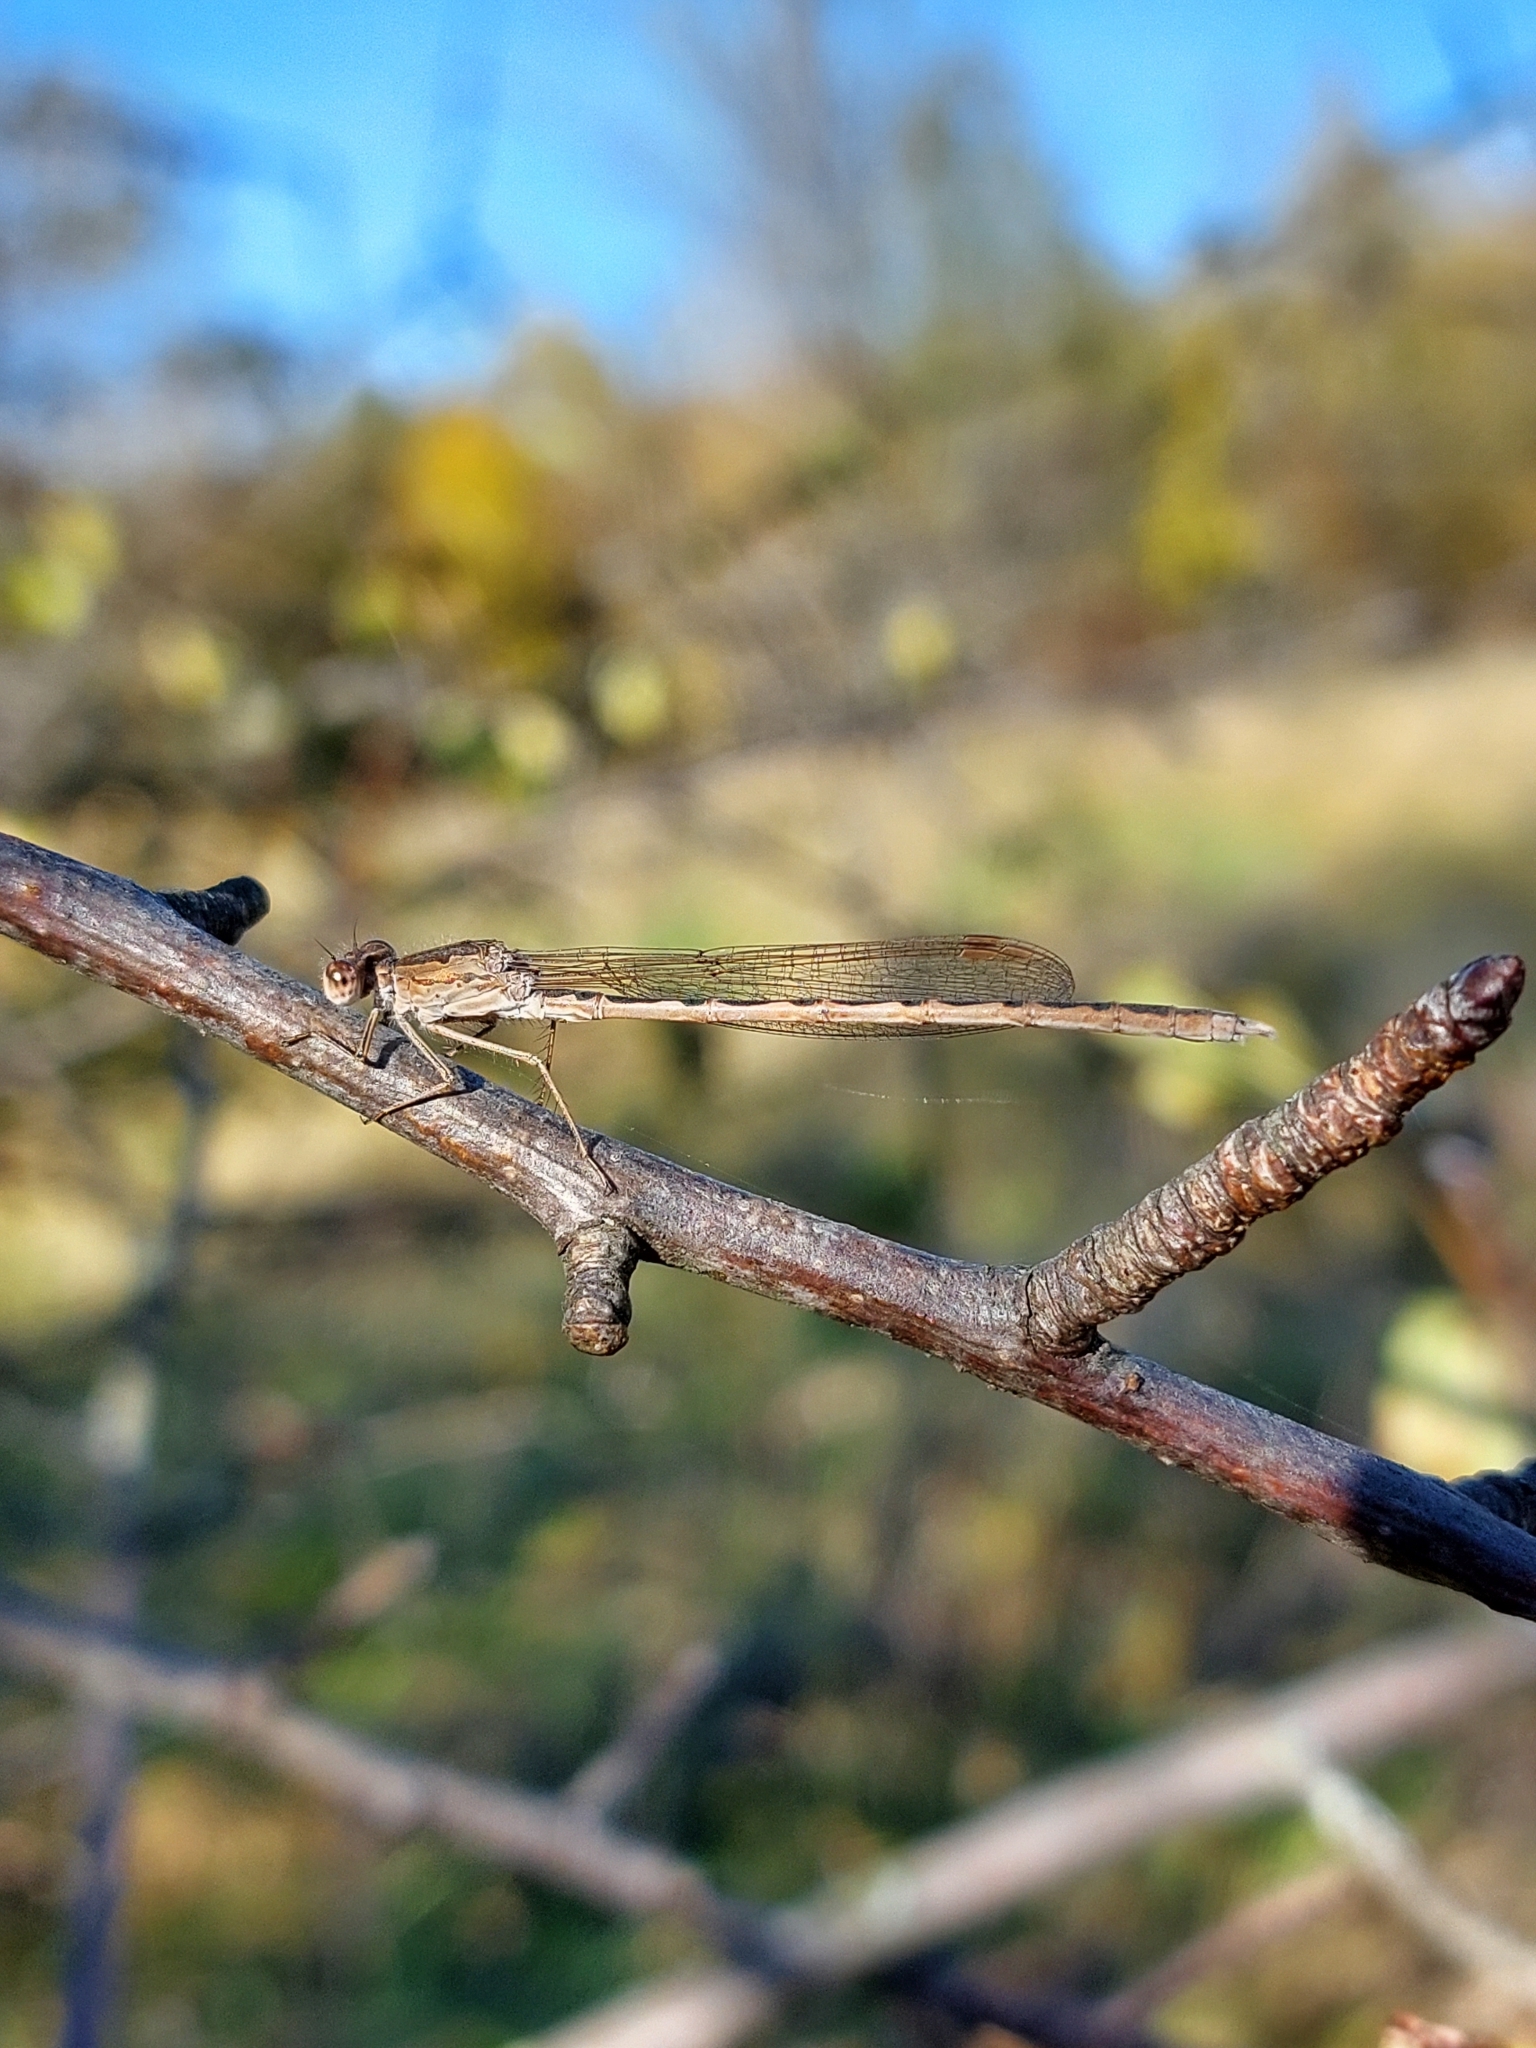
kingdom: Animalia
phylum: Arthropoda
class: Insecta
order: Odonata
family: Lestidae
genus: Sympecma
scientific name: Sympecma paedisca
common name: Siberian winter damsel
